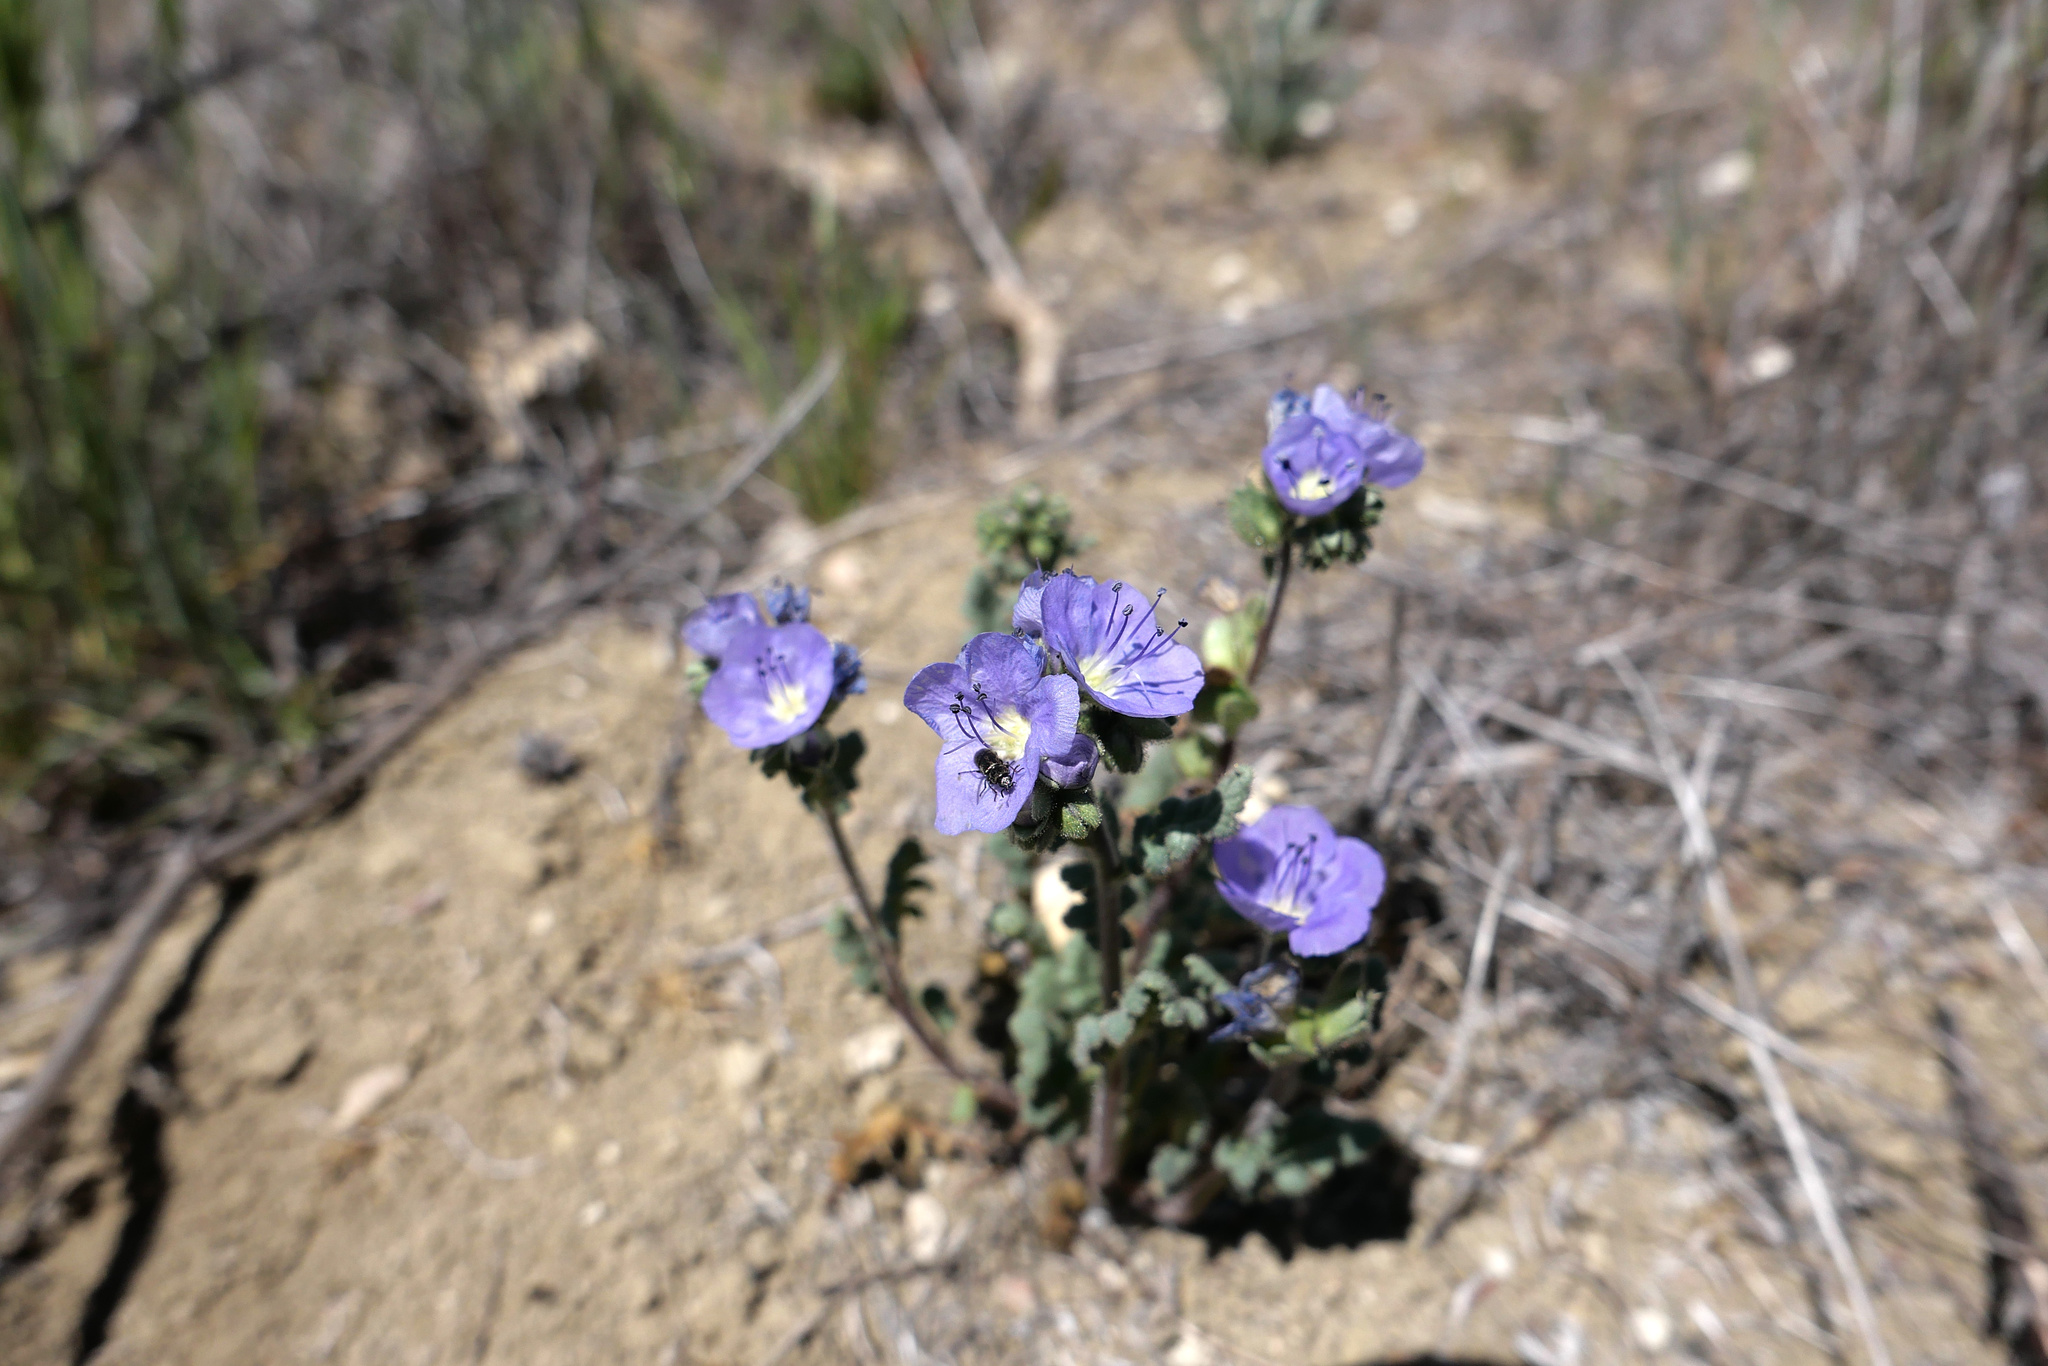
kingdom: Plantae
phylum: Tracheophyta
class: Magnoliopsida
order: Boraginales
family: Hydrophyllaceae
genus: Phacelia
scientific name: Phacelia ciliata
